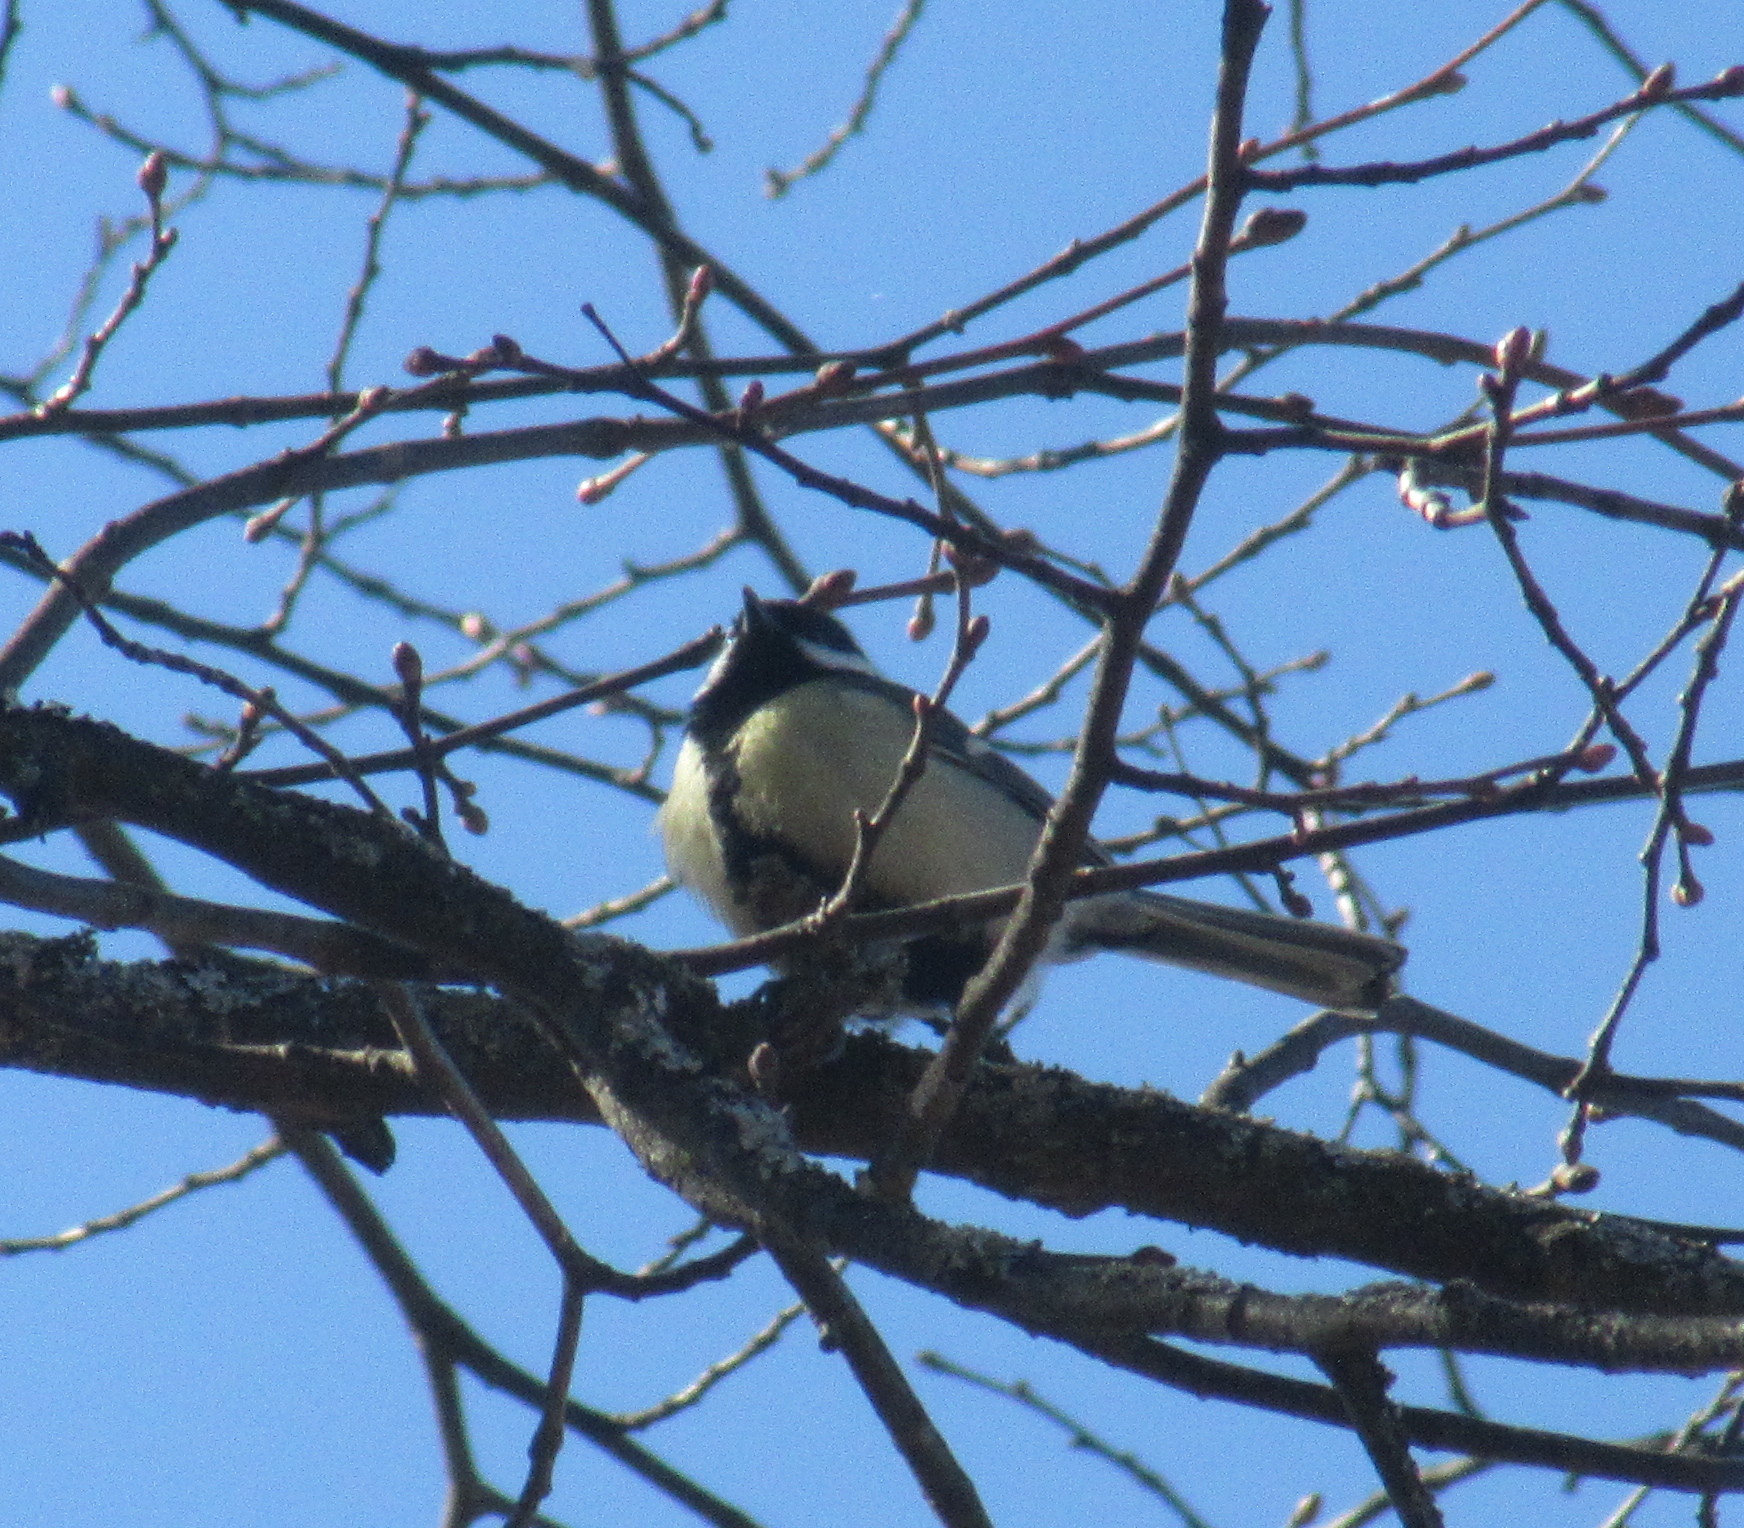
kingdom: Animalia
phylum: Chordata
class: Aves
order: Passeriformes
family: Paridae
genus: Parus
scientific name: Parus major
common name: Great tit
